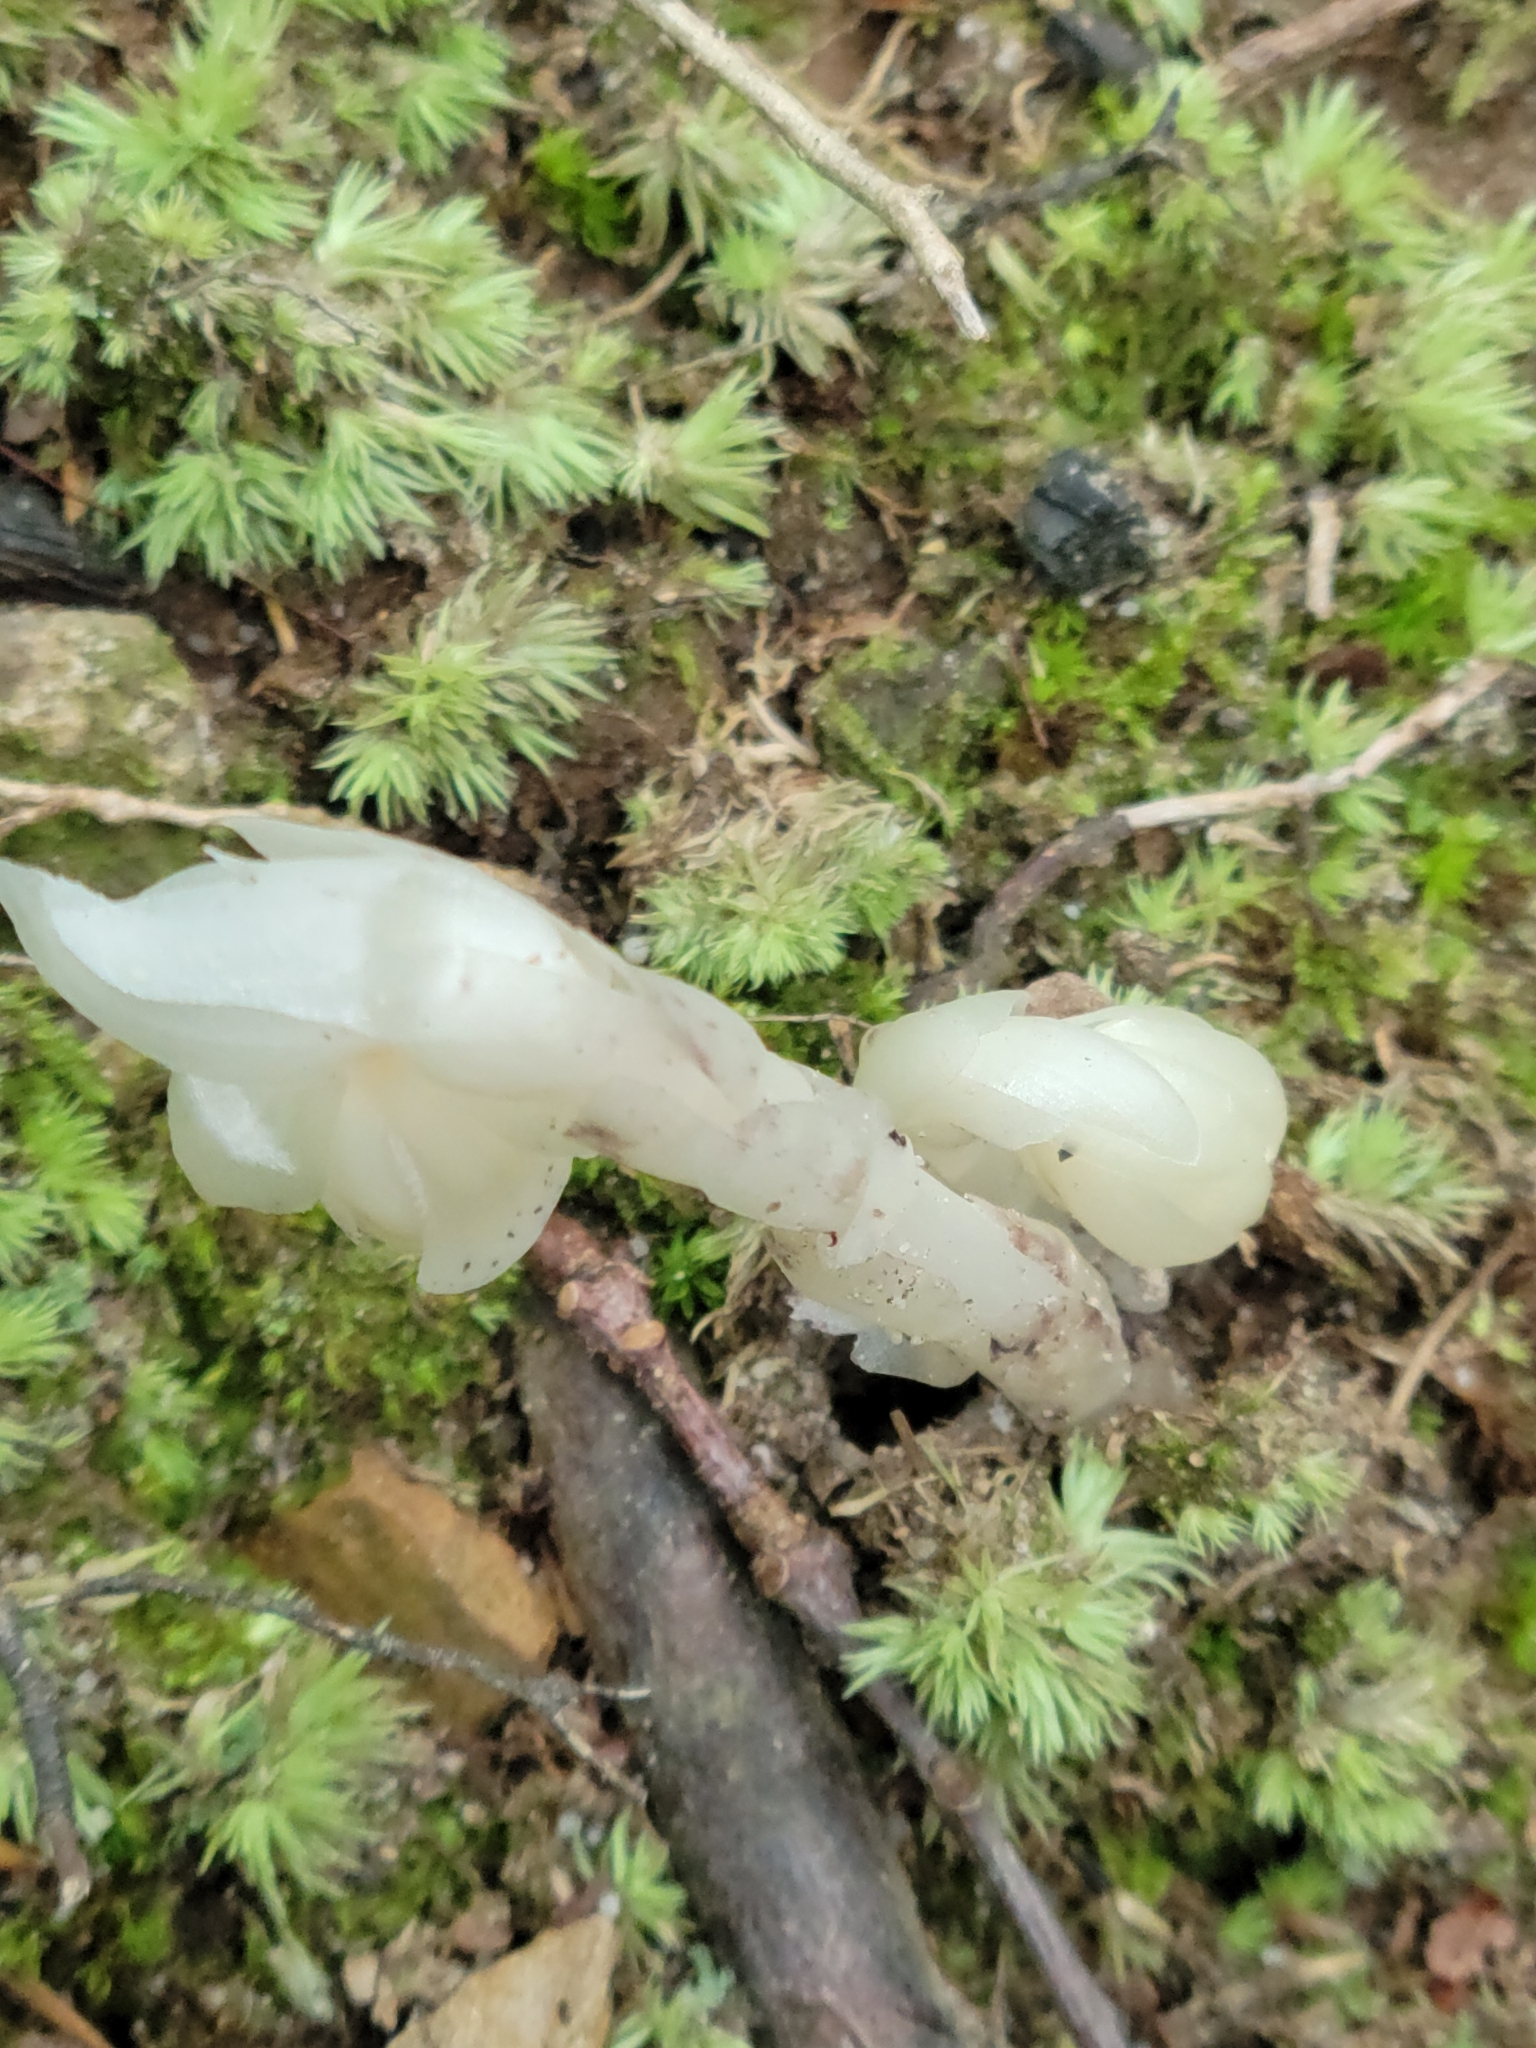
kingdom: Plantae
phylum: Tracheophyta
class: Magnoliopsida
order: Ericales
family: Ericaceae
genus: Monotropa
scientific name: Monotropa uniflora
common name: Convulsion root
